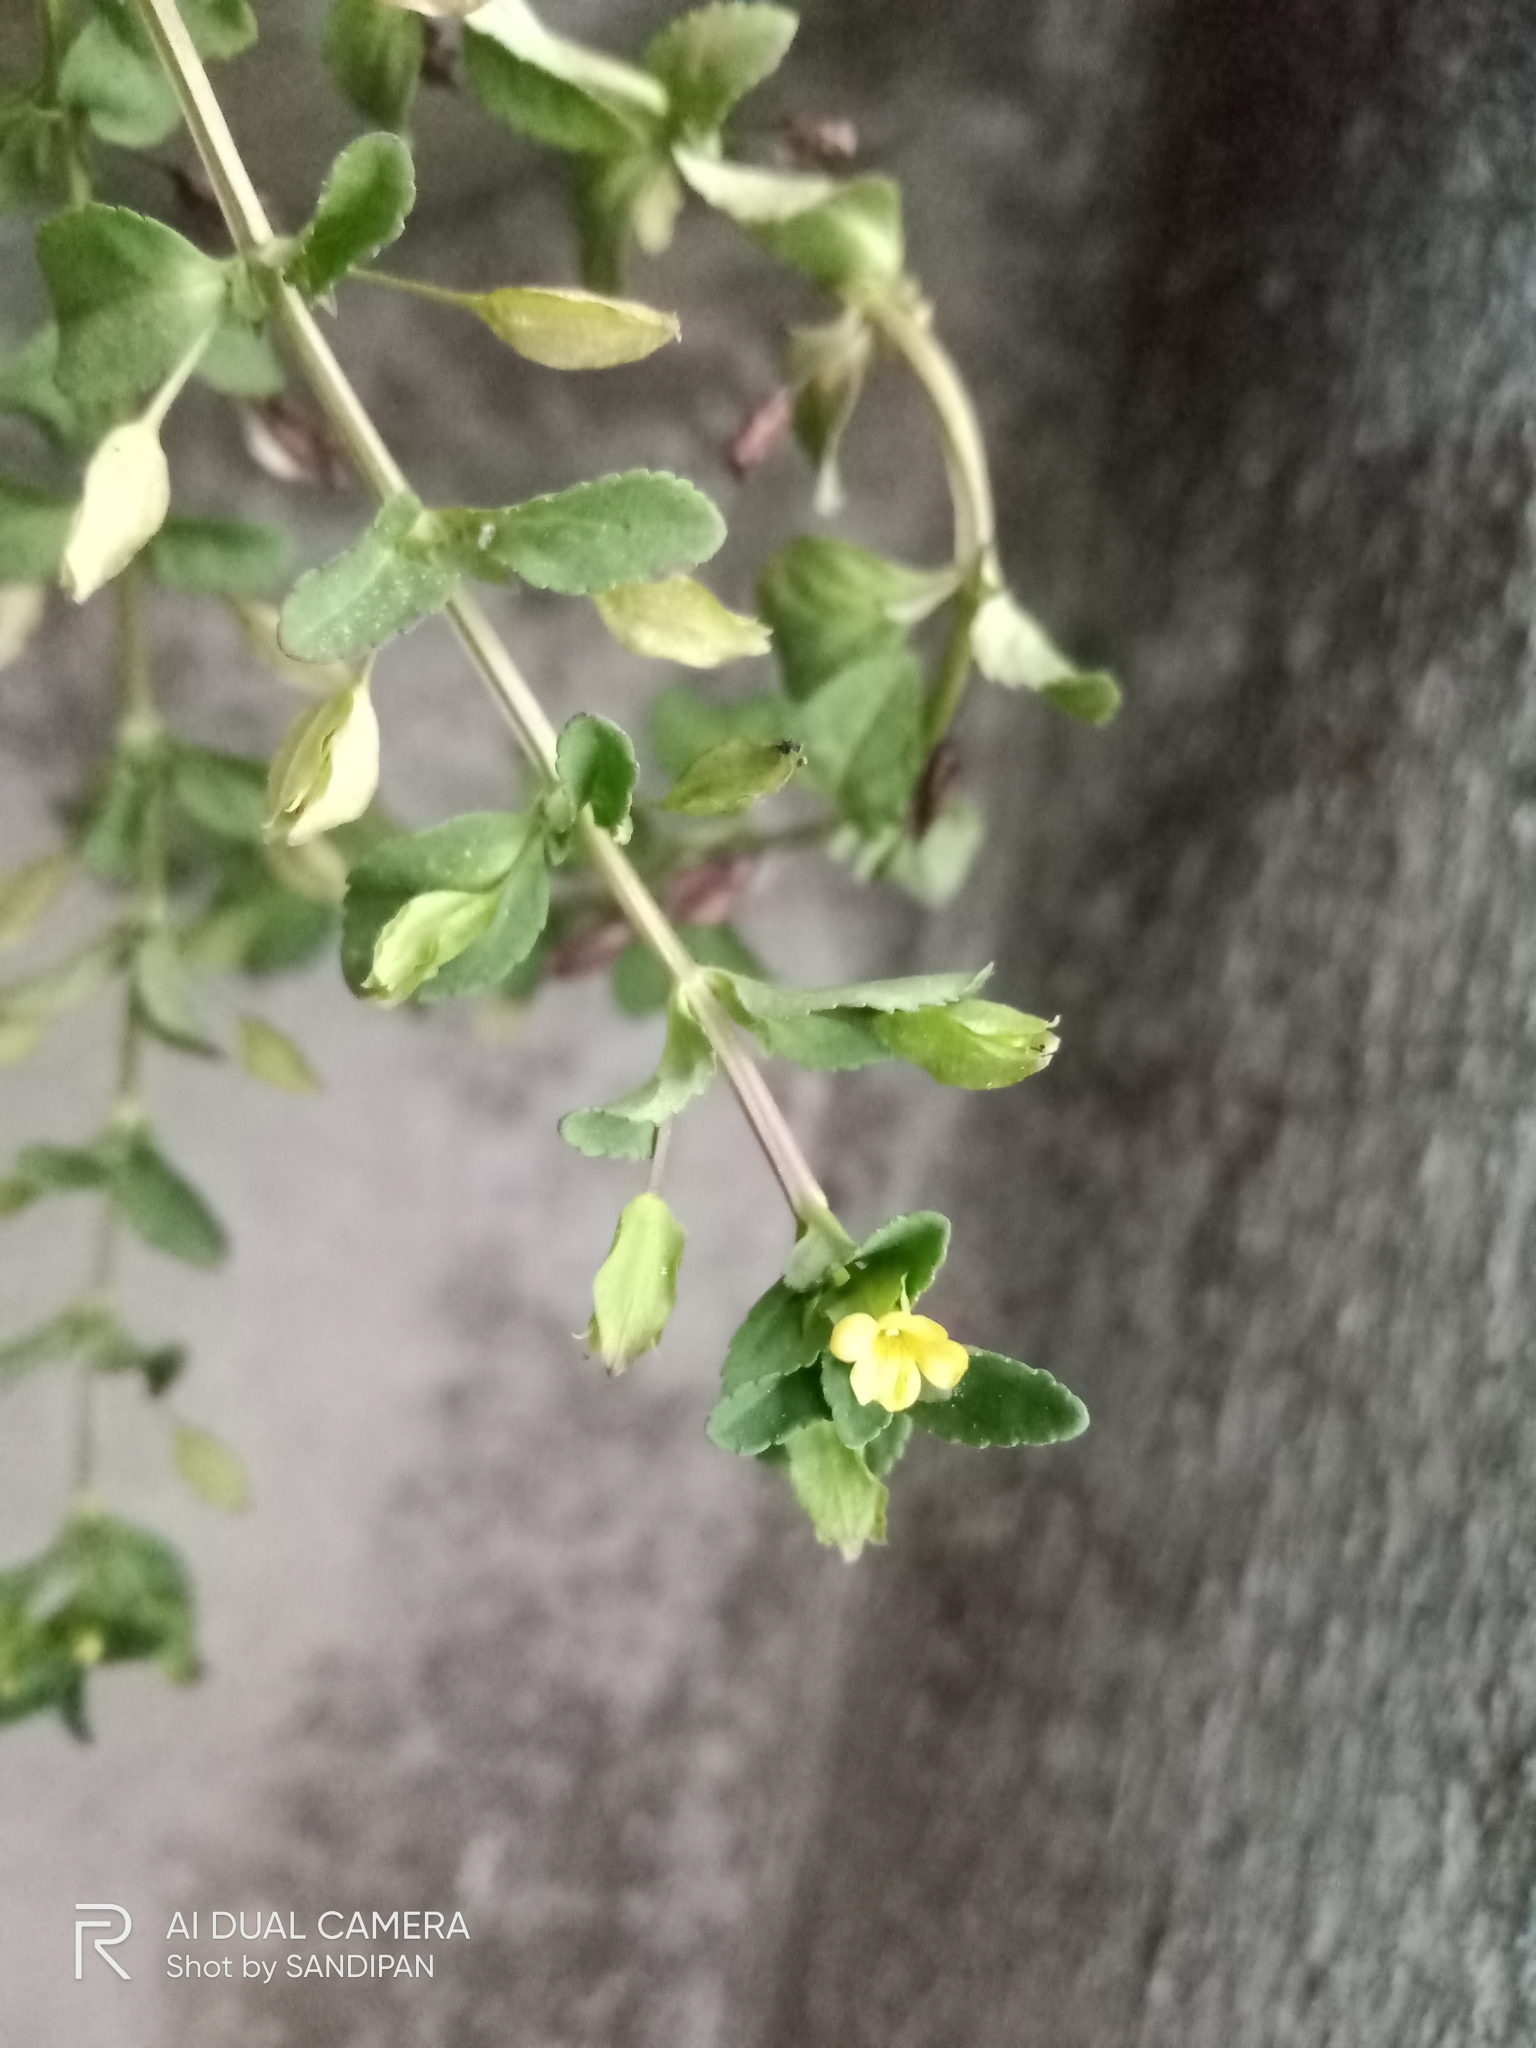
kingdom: Plantae
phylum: Tracheophyta
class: Magnoliopsida
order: Lamiales
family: Plantaginaceae
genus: Mecardonia
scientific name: Mecardonia procumbens
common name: Baby jump-up
